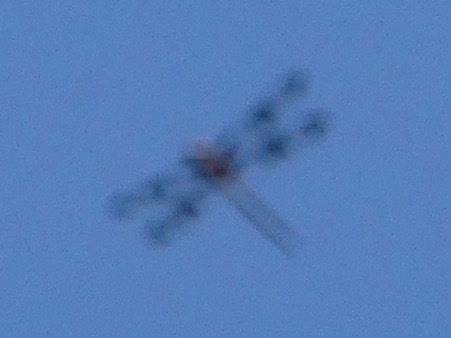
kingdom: Animalia
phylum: Arthropoda
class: Insecta
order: Odonata
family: Corduliidae
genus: Epitheca
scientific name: Epitheca princeps
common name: Prince baskettail
